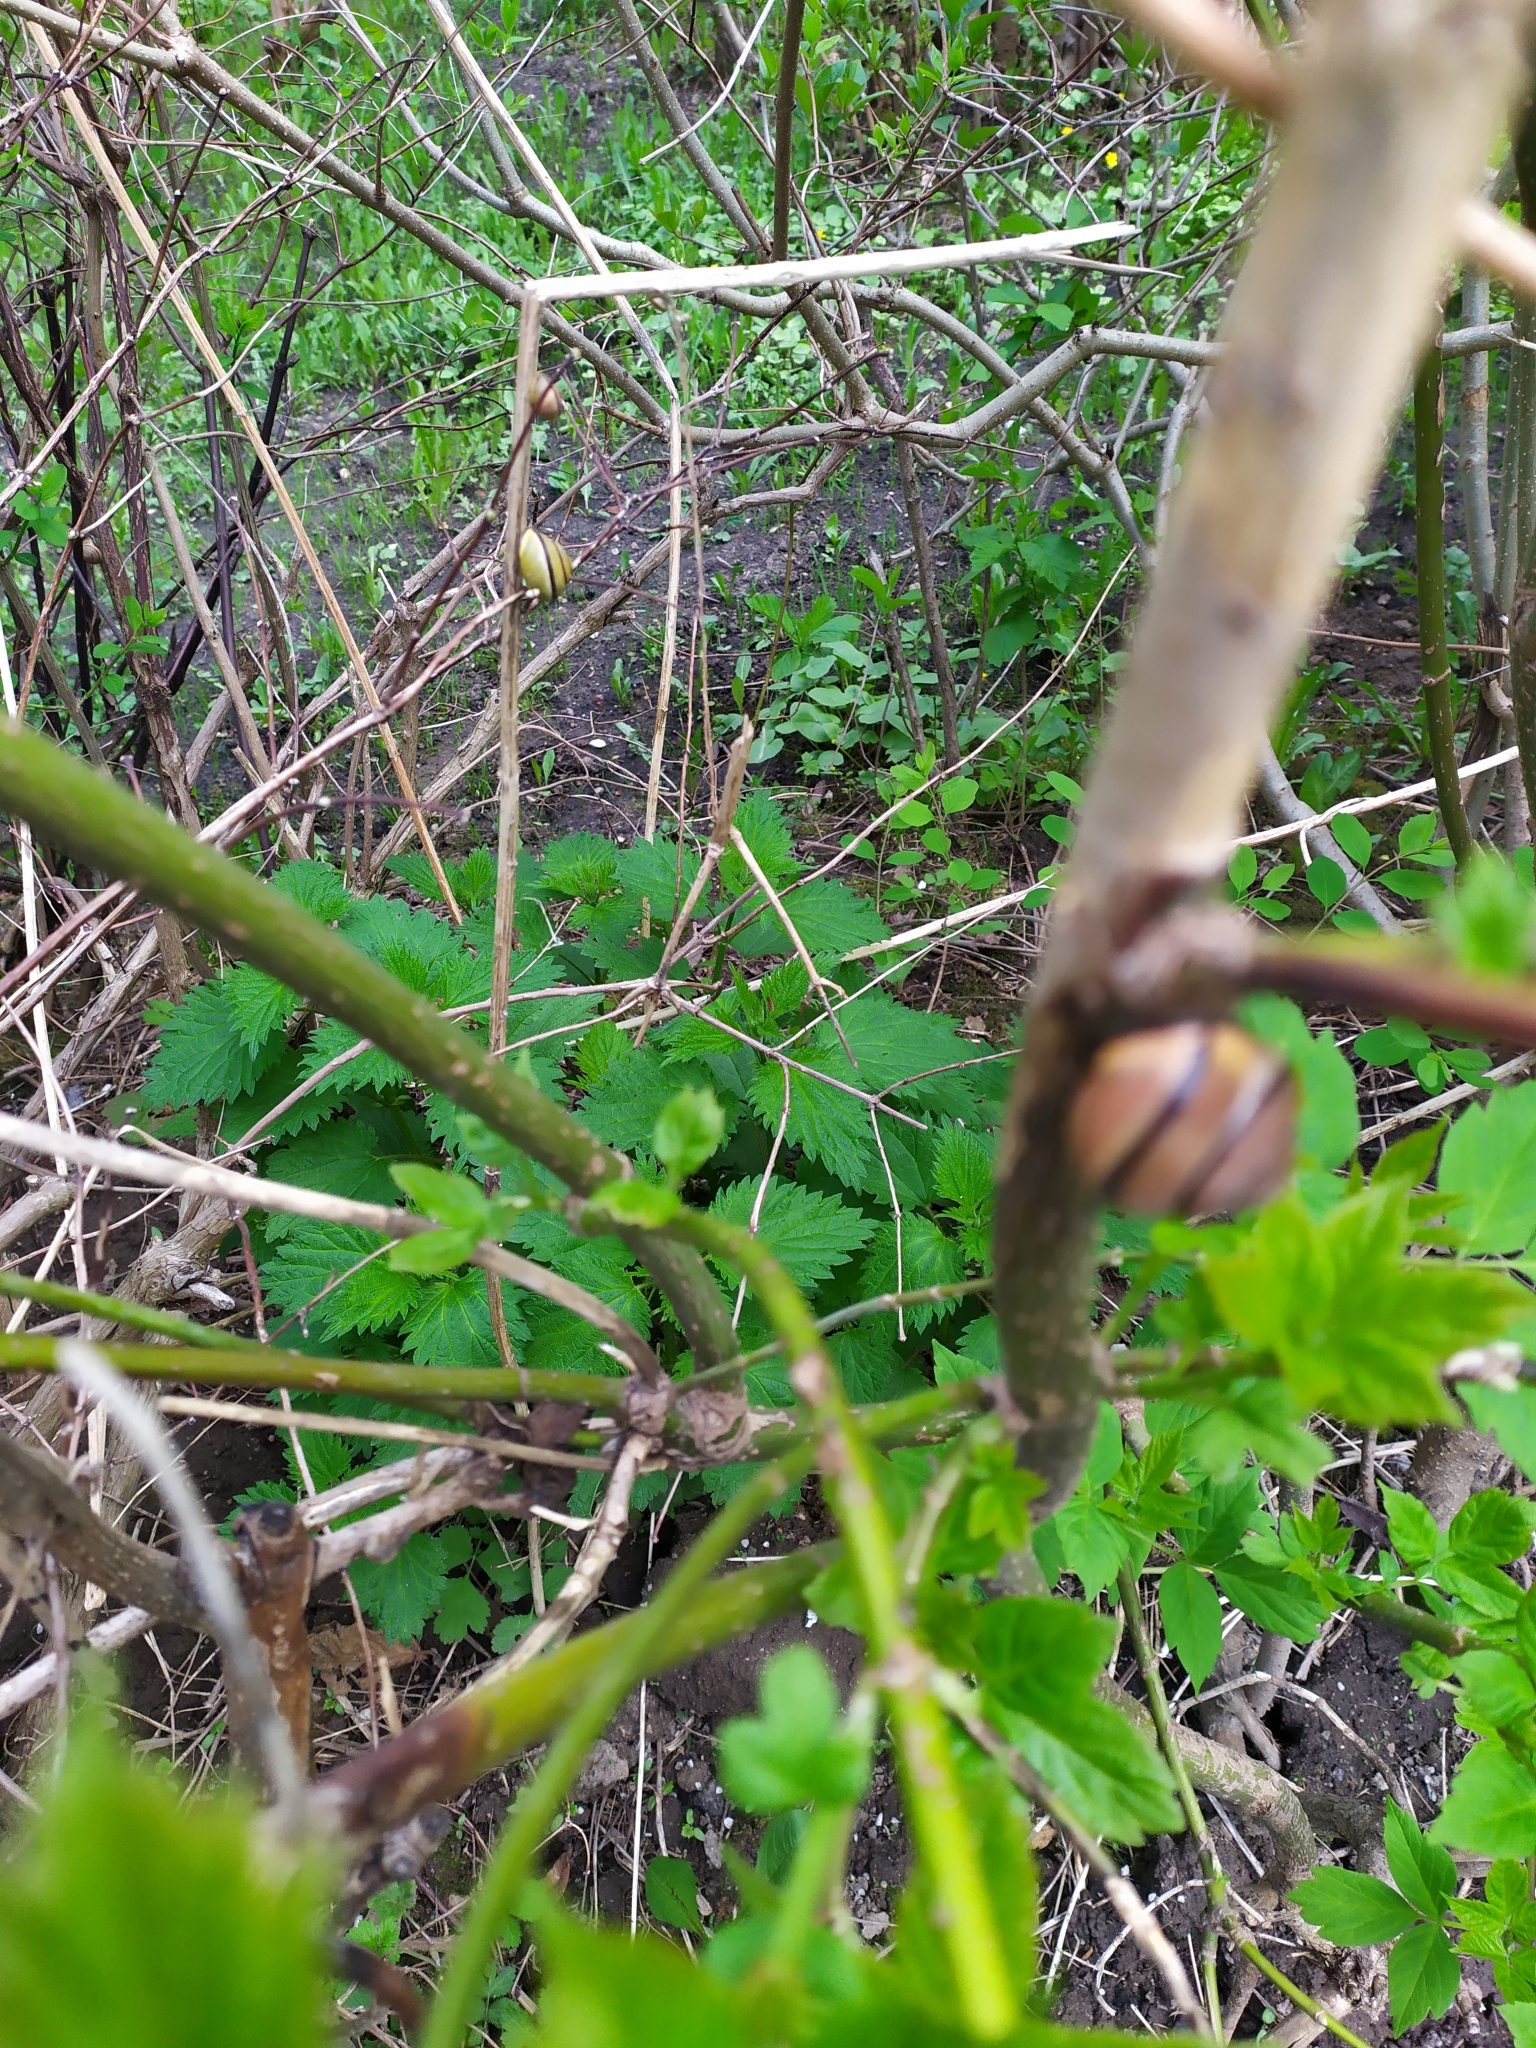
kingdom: Animalia
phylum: Mollusca
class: Gastropoda
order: Stylommatophora
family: Helicidae
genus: Cepaea
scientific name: Cepaea nemoralis
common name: Grovesnail
